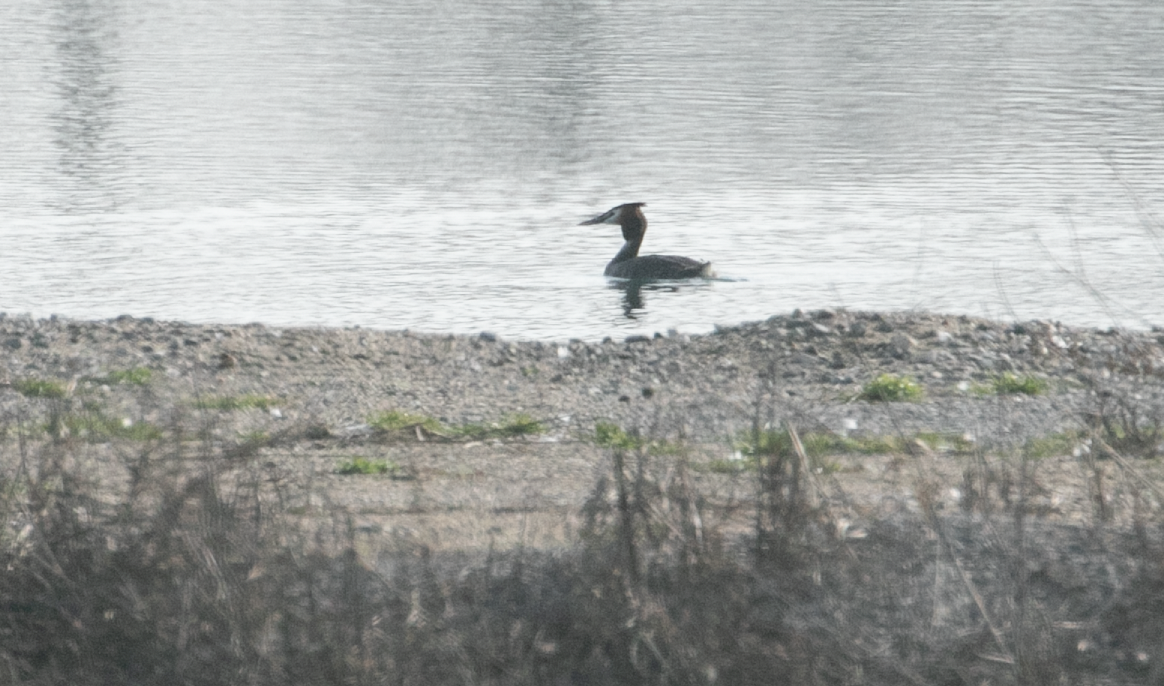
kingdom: Animalia
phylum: Chordata
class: Aves
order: Podicipediformes
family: Podicipedidae
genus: Podiceps
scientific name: Podiceps cristatus
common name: Great crested grebe
